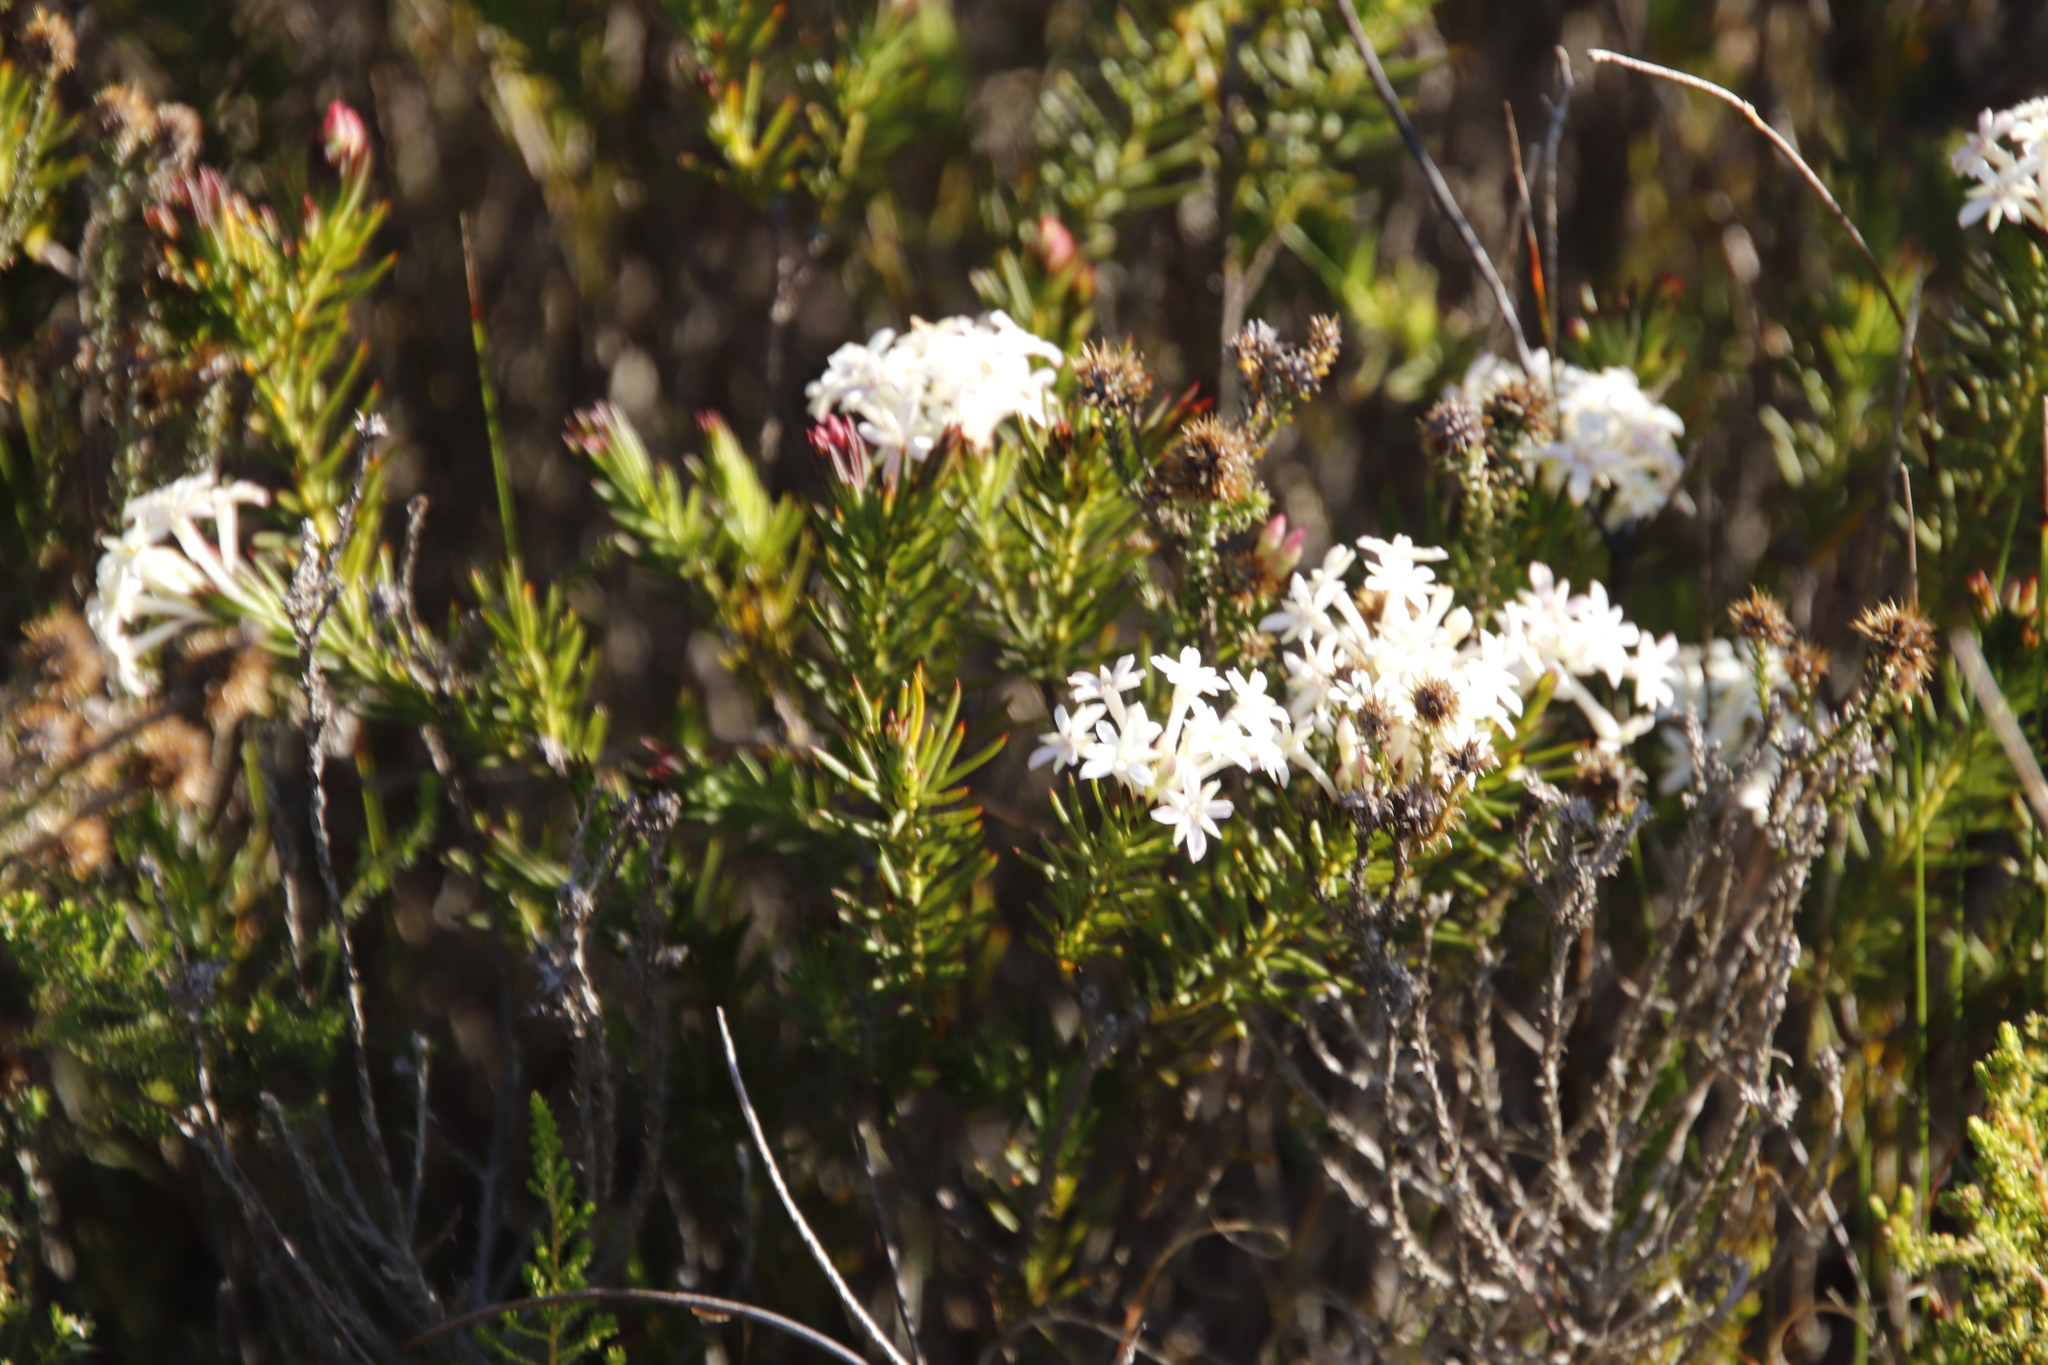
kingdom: Plantae
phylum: Tracheophyta
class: Magnoliopsida
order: Malvales
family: Thymelaeaceae
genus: Gnidia
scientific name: Gnidia pinifolia
